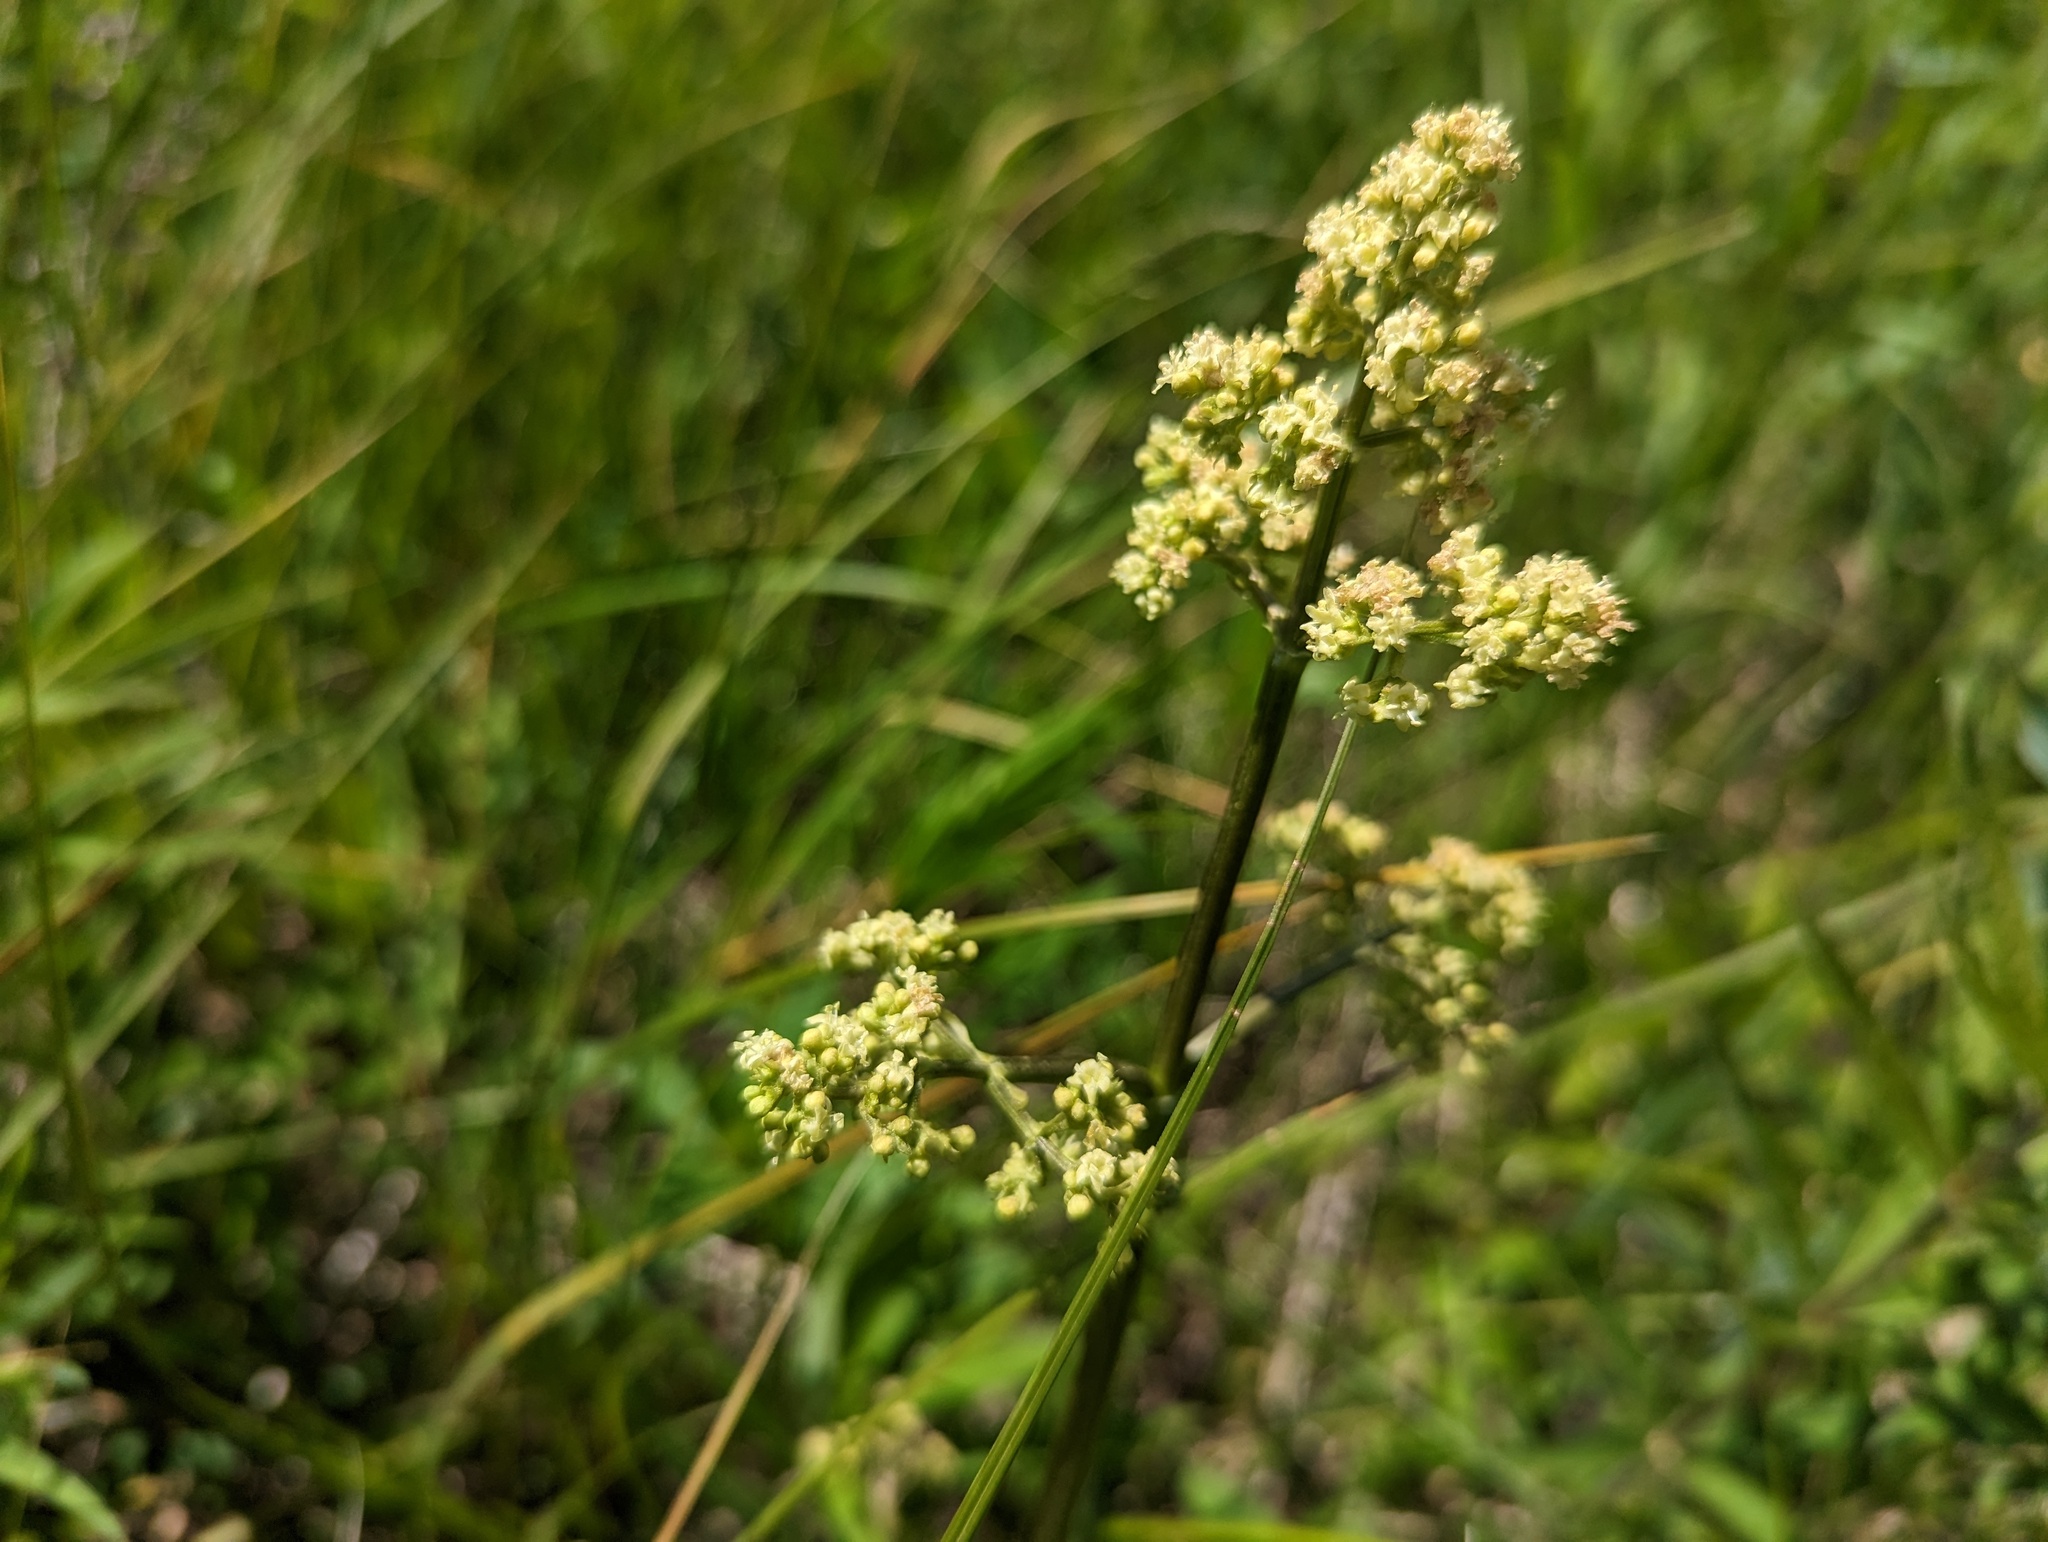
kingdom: Plantae
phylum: Tracheophyta
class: Magnoliopsida
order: Dipsacales
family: Caprifoliaceae
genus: Valeriana
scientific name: Valeriana edulis
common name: Taproot valerian
